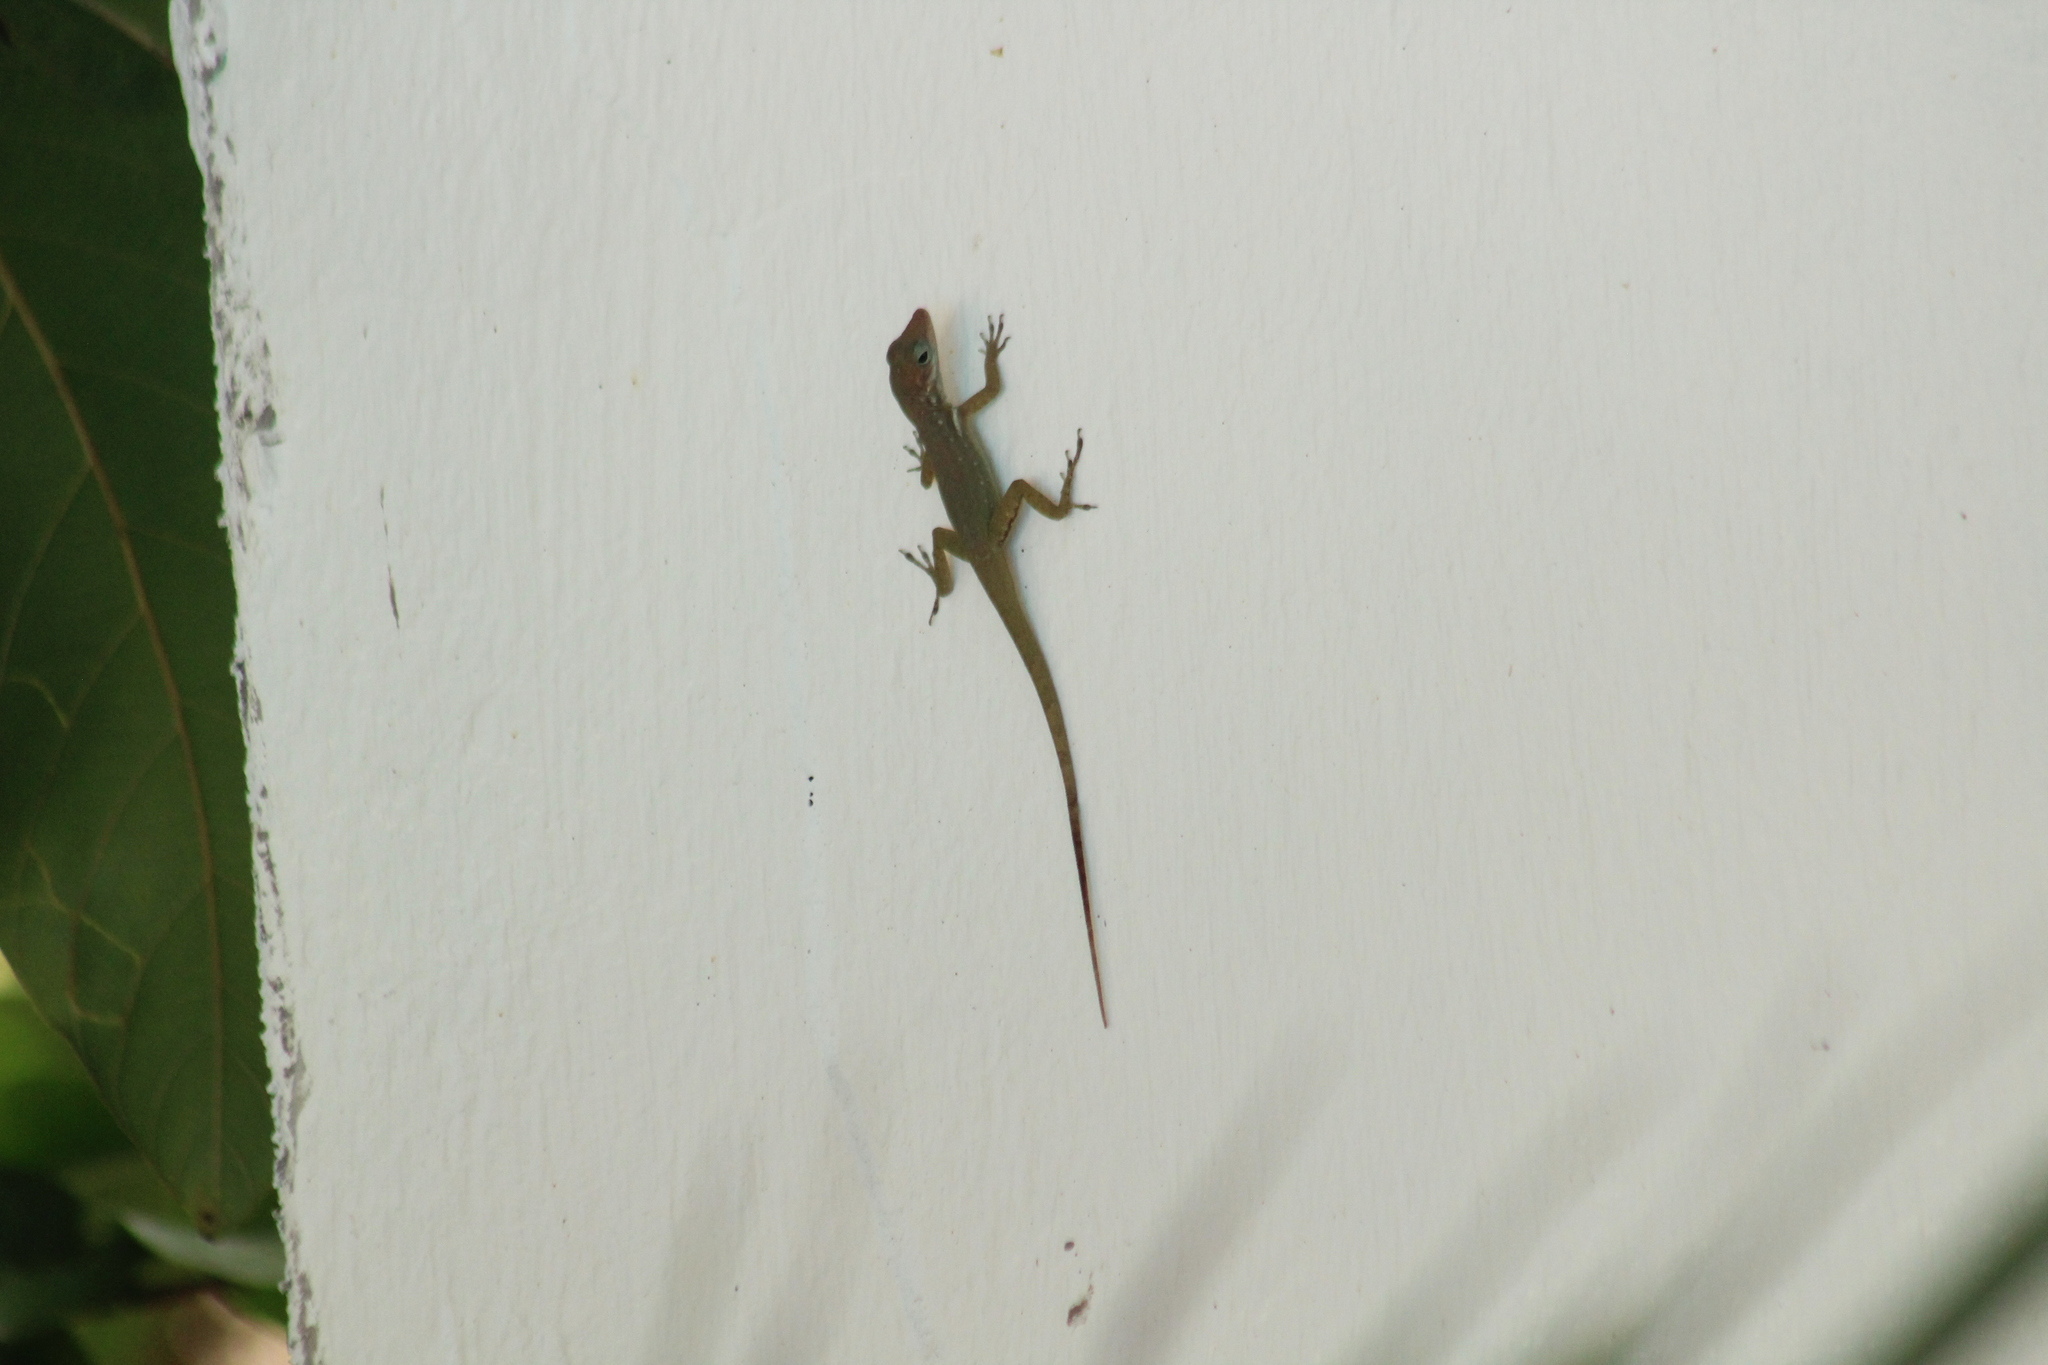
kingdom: Animalia
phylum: Chordata
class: Squamata
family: Dactyloidae
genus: Anolis
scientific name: Anolis sabanus
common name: Saba anole
